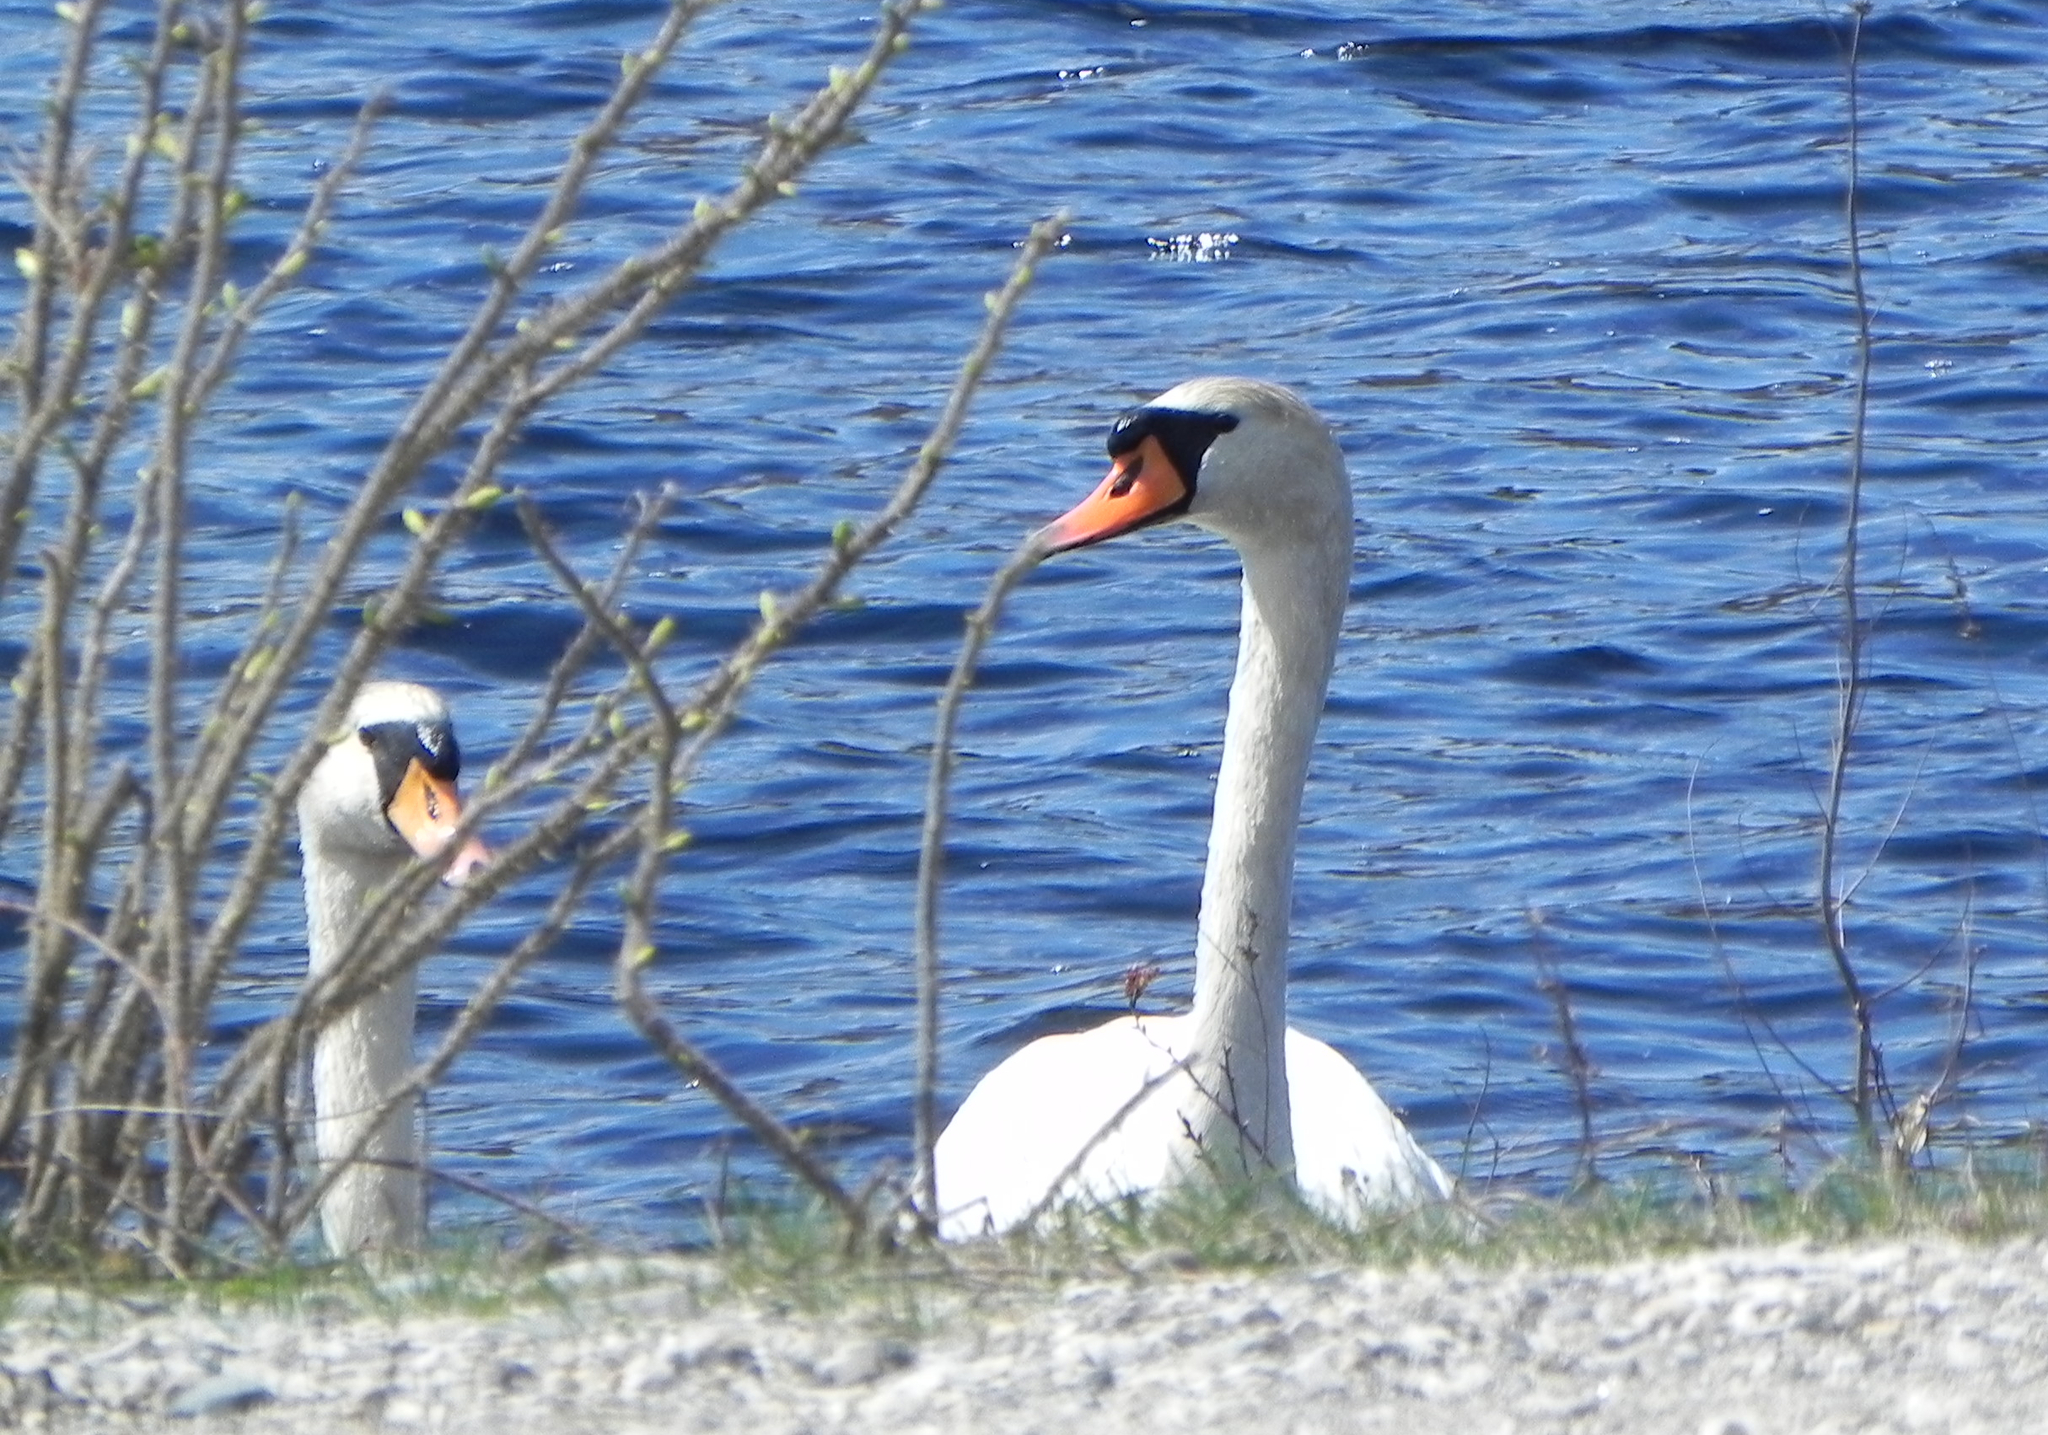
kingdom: Animalia
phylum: Chordata
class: Aves
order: Anseriformes
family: Anatidae
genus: Cygnus
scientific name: Cygnus olor
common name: Mute swan
